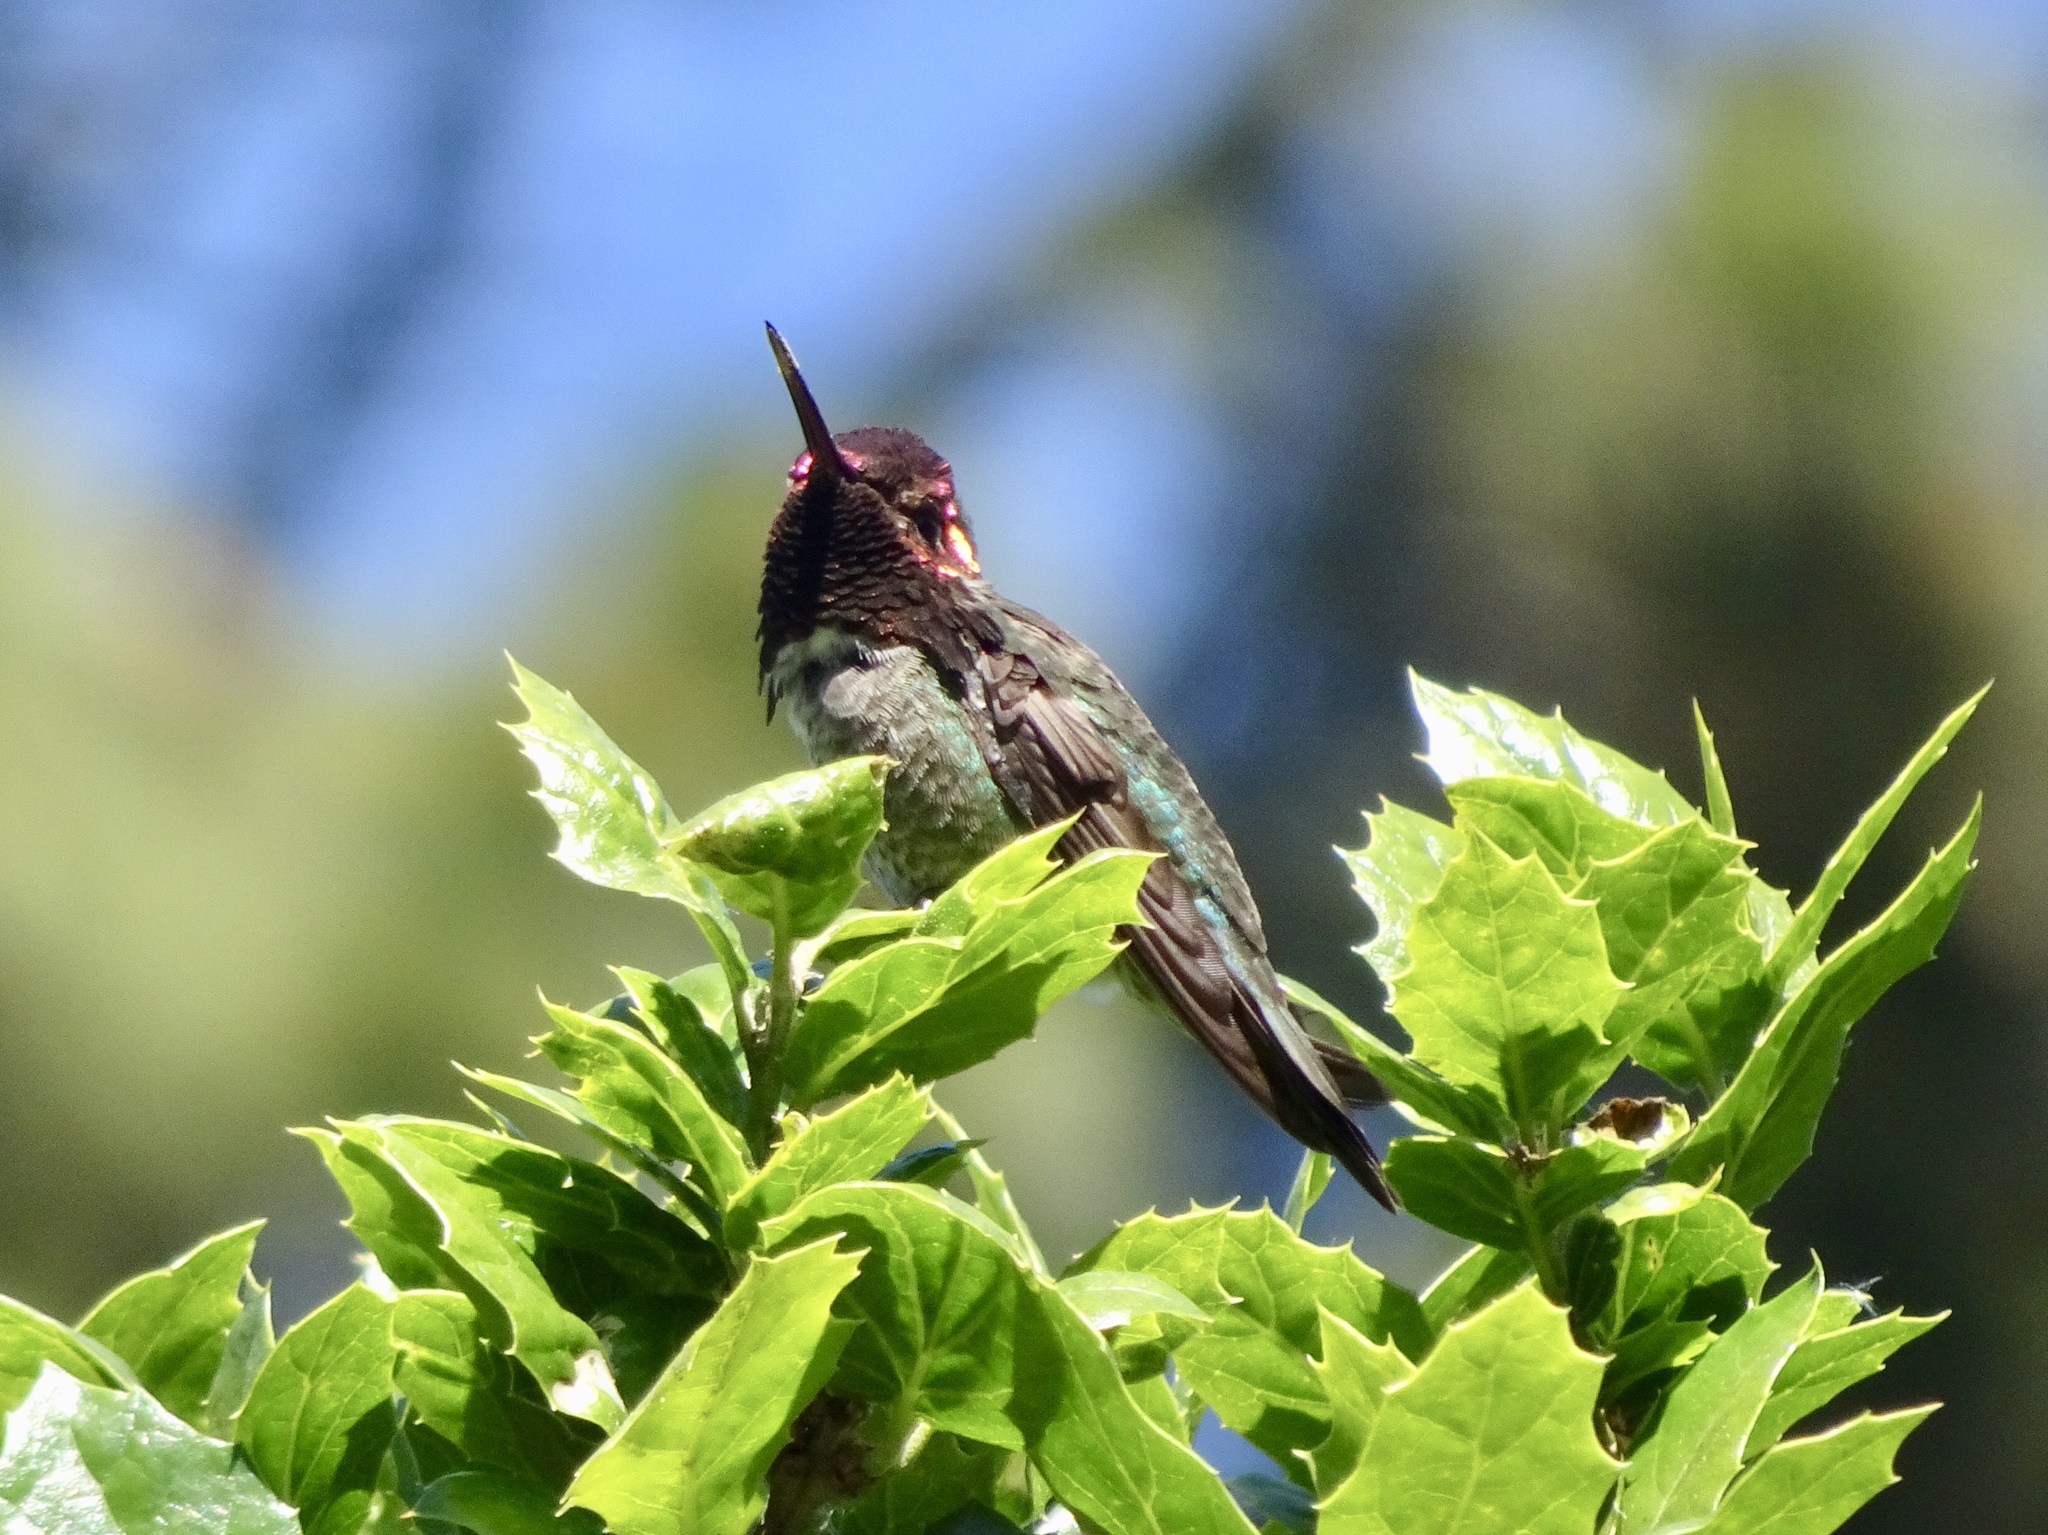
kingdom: Animalia
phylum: Chordata
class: Aves
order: Apodiformes
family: Trochilidae
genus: Calypte
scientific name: Calypte anna
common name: Anna's hummingbird
